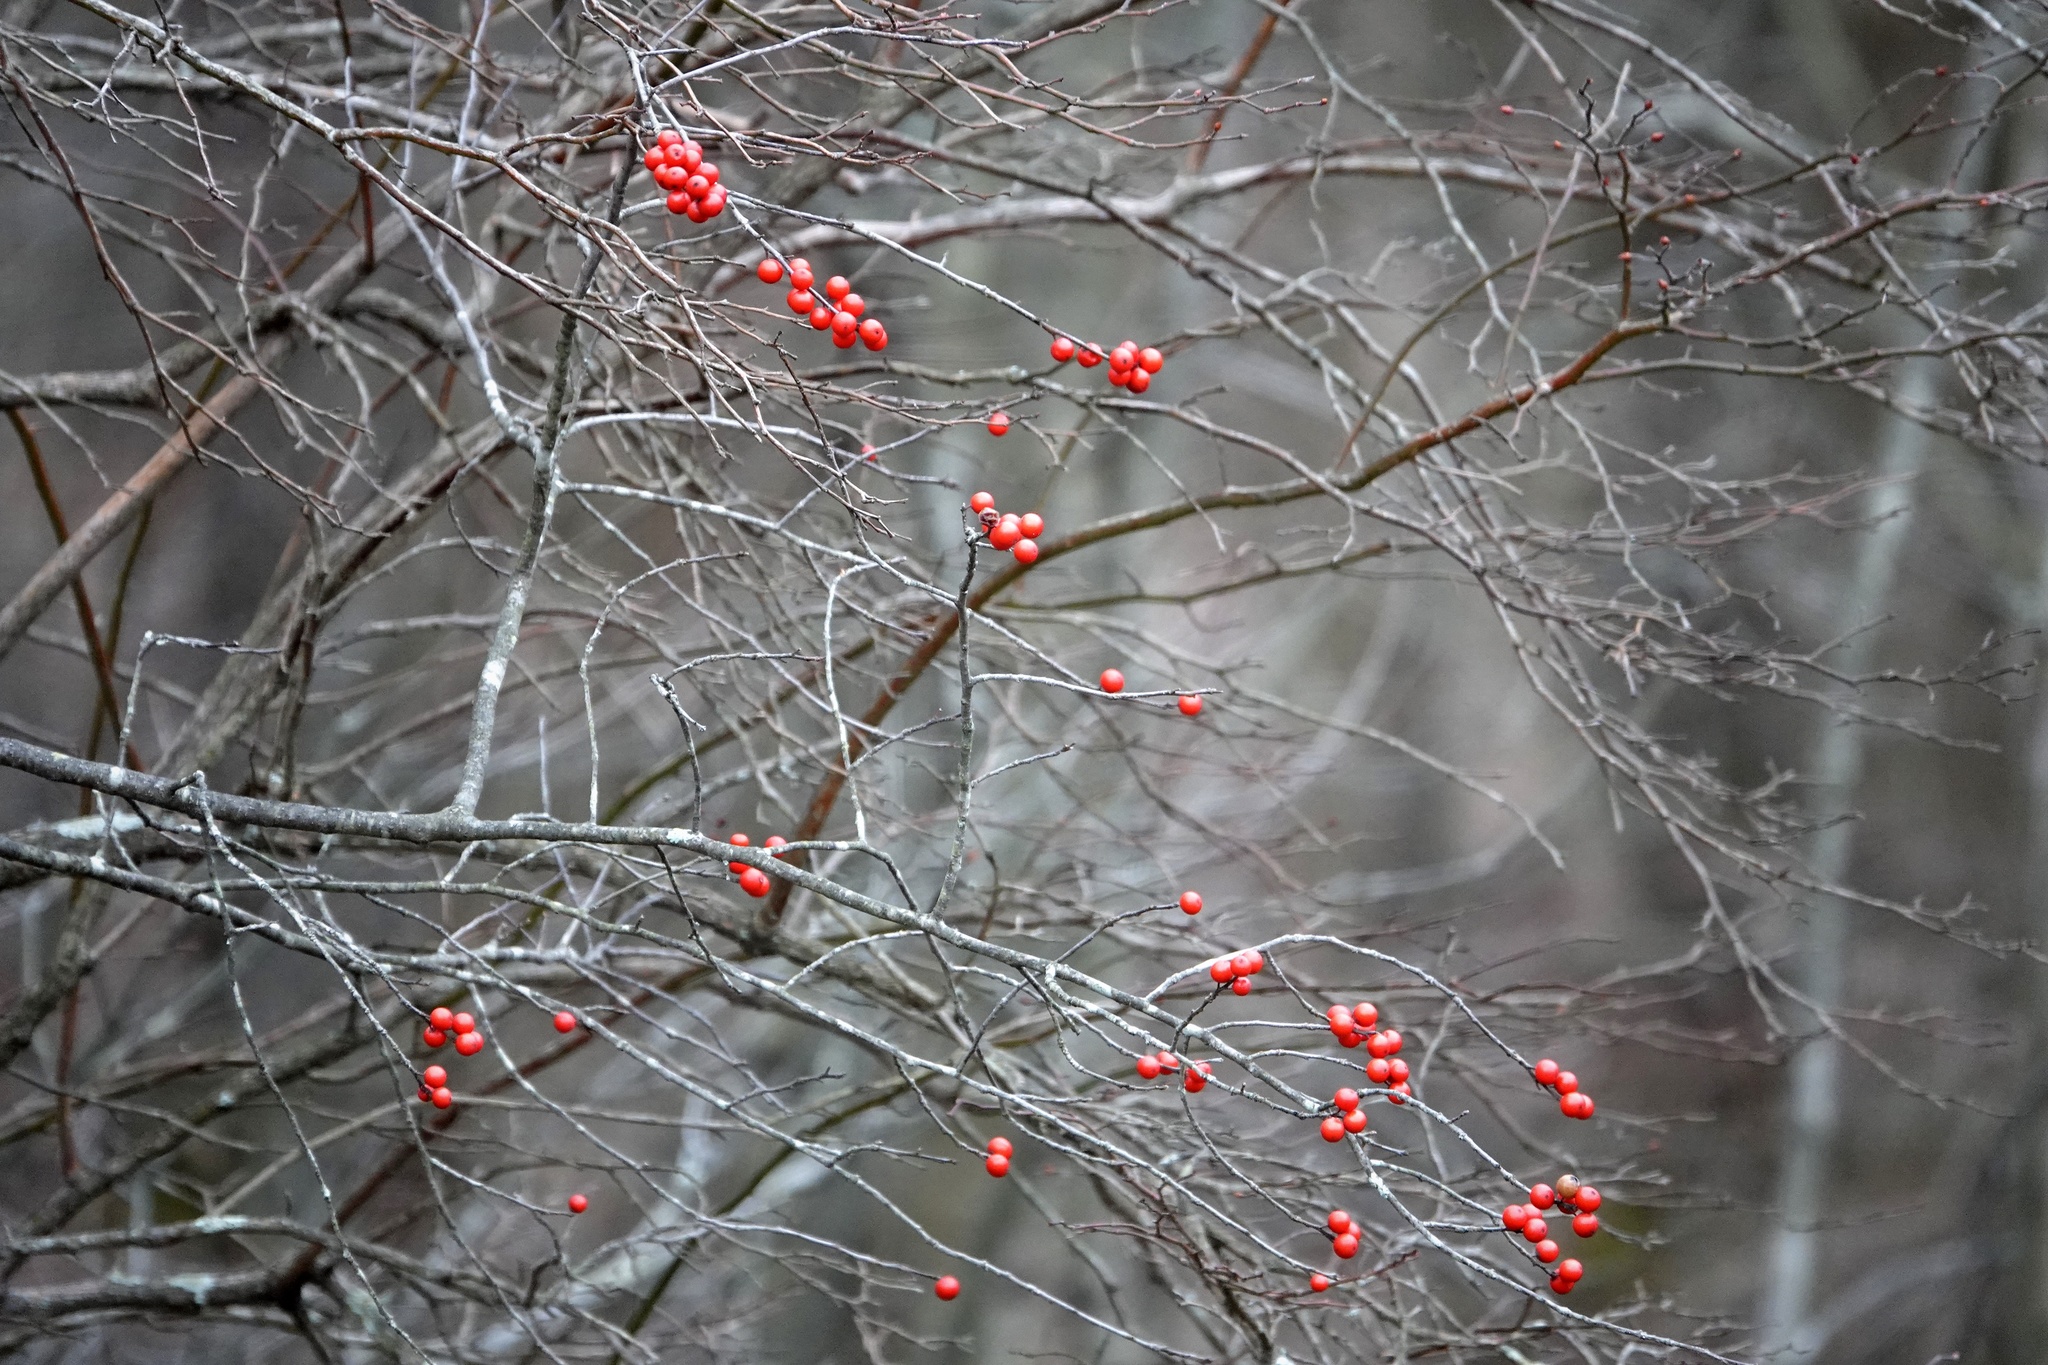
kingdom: Plantae
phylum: Tracheophyta
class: Magnoliopsida
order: Aquifoliales
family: Aquifoliaceae
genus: Ilex
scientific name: Ilex verticillata
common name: Virginia winterberry
